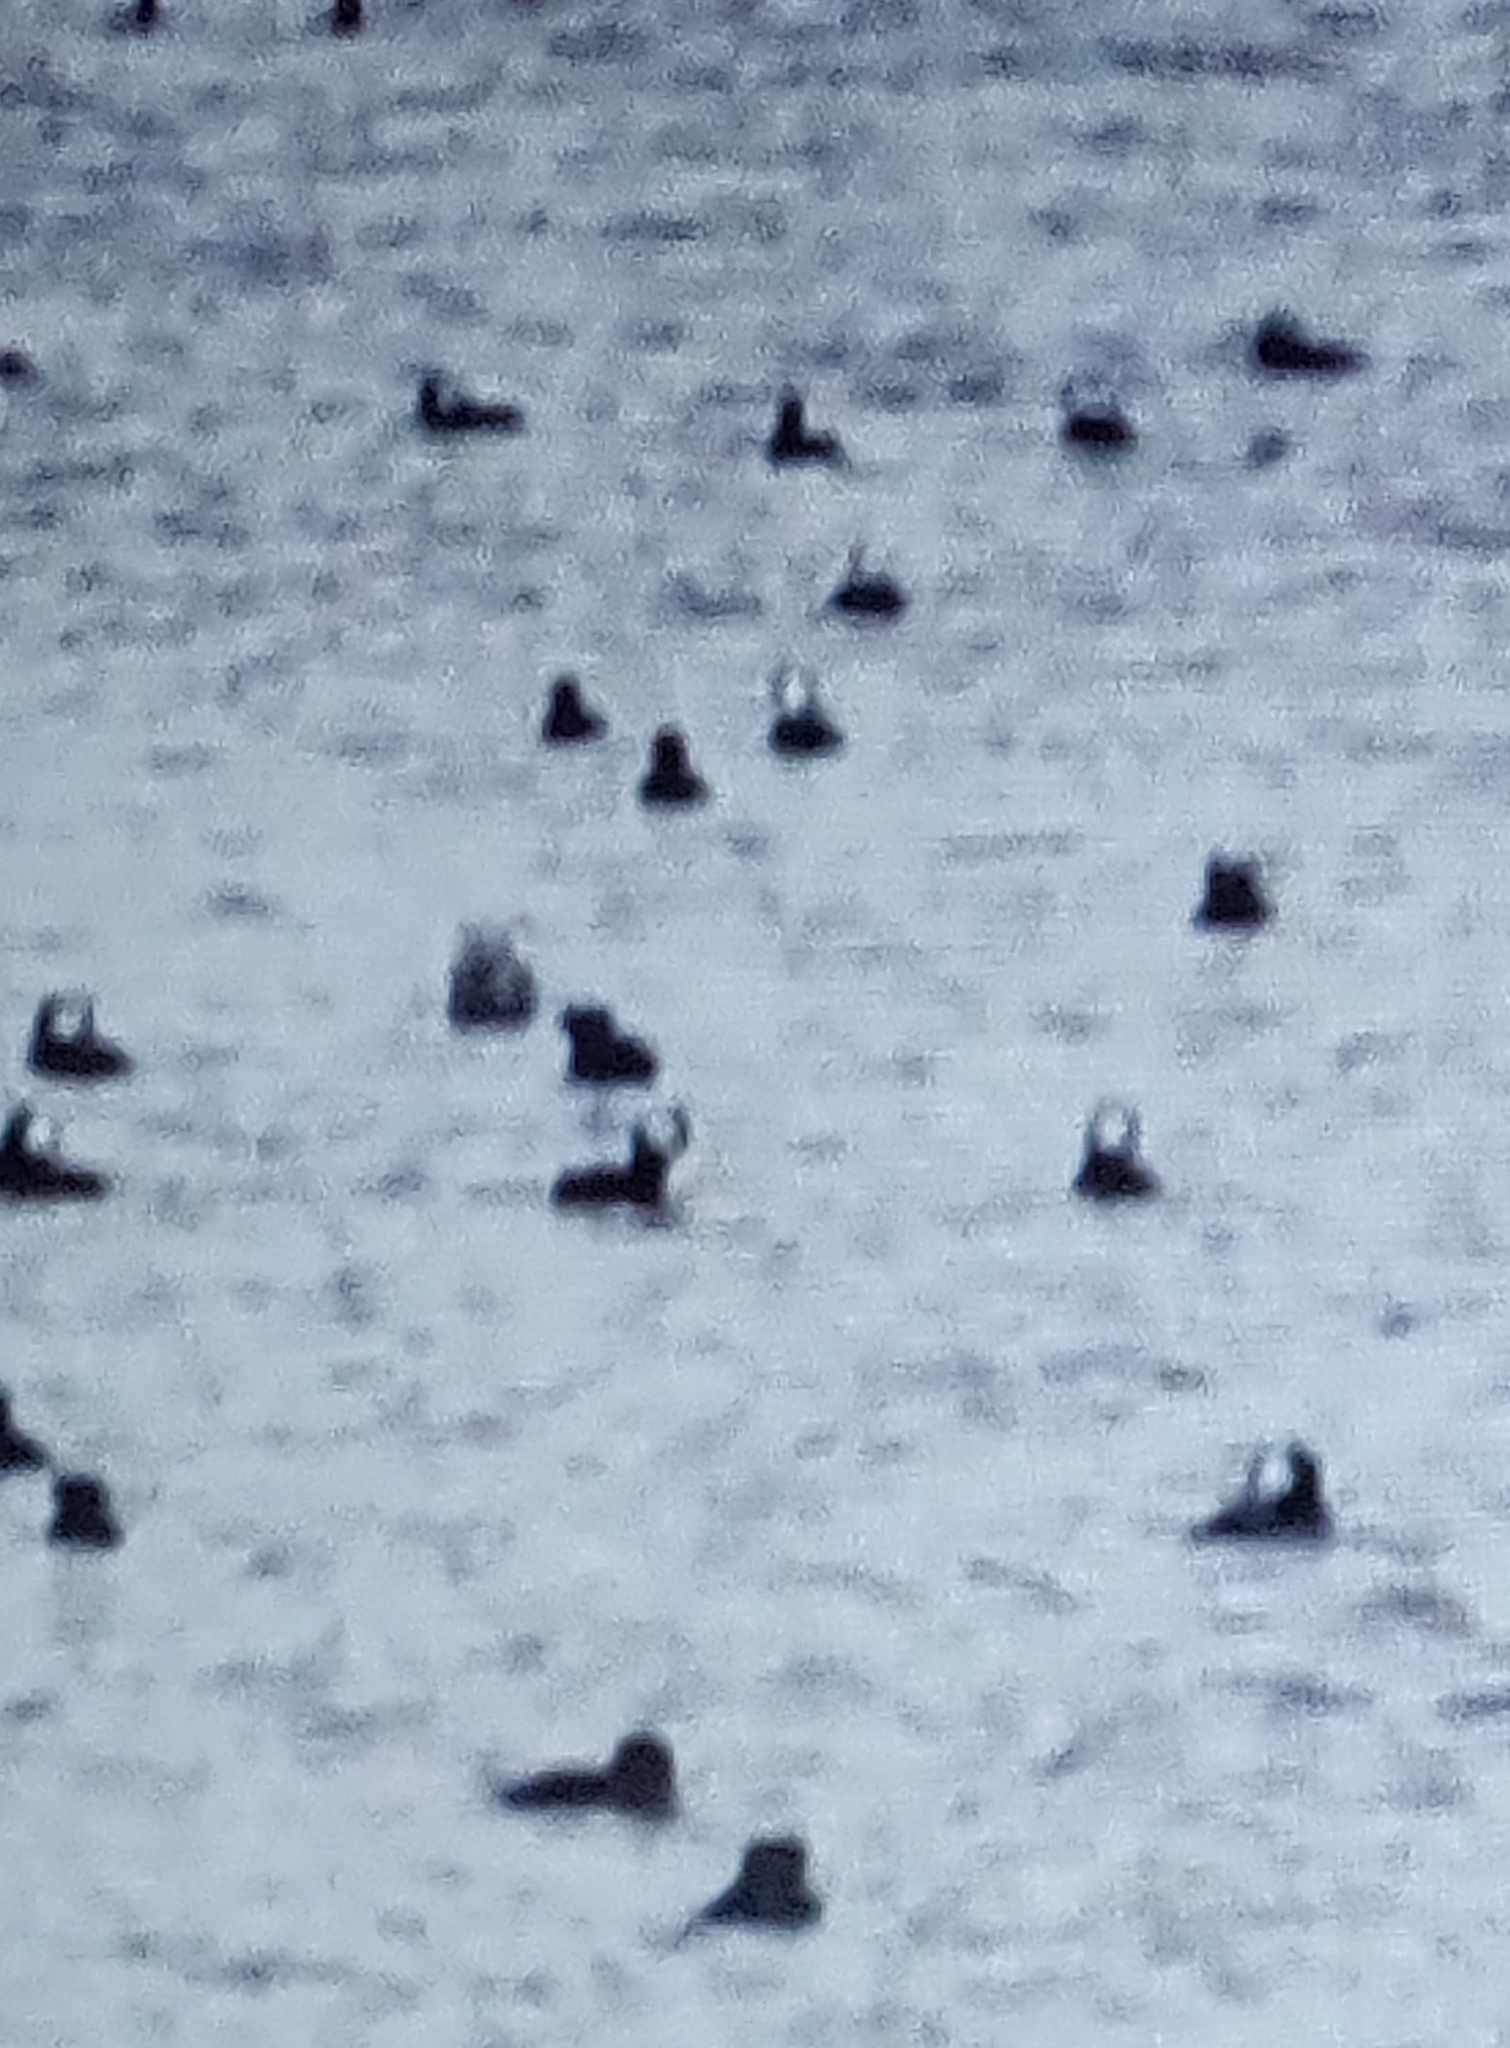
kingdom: Animalia
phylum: Chordata
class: Aves
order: Anseriformes
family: Anatidae
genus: Lophodytes
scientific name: Lophodytes cucullatus
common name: Hooded merganser
